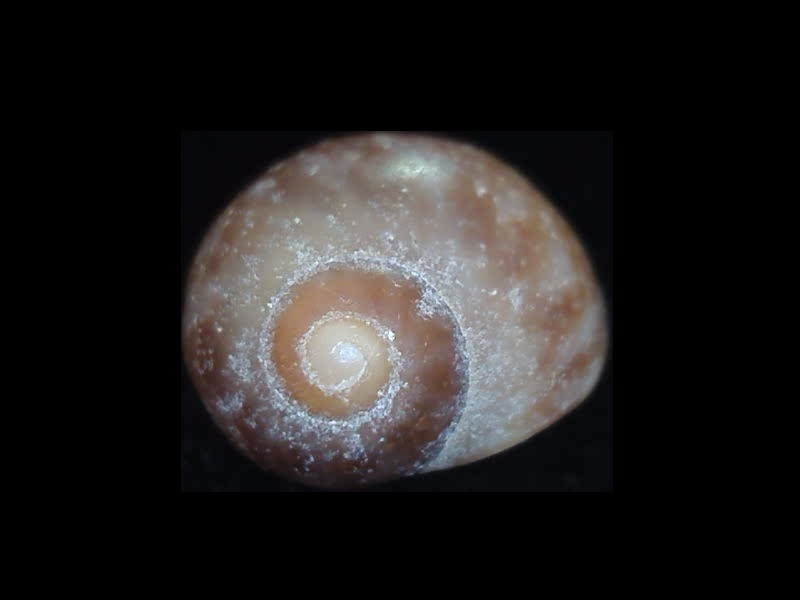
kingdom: Animalia
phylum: Mollusca
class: Gastropoda
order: Littorinimorpha
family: Naticidae
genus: Proxiuber
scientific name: Proxiuber australe
